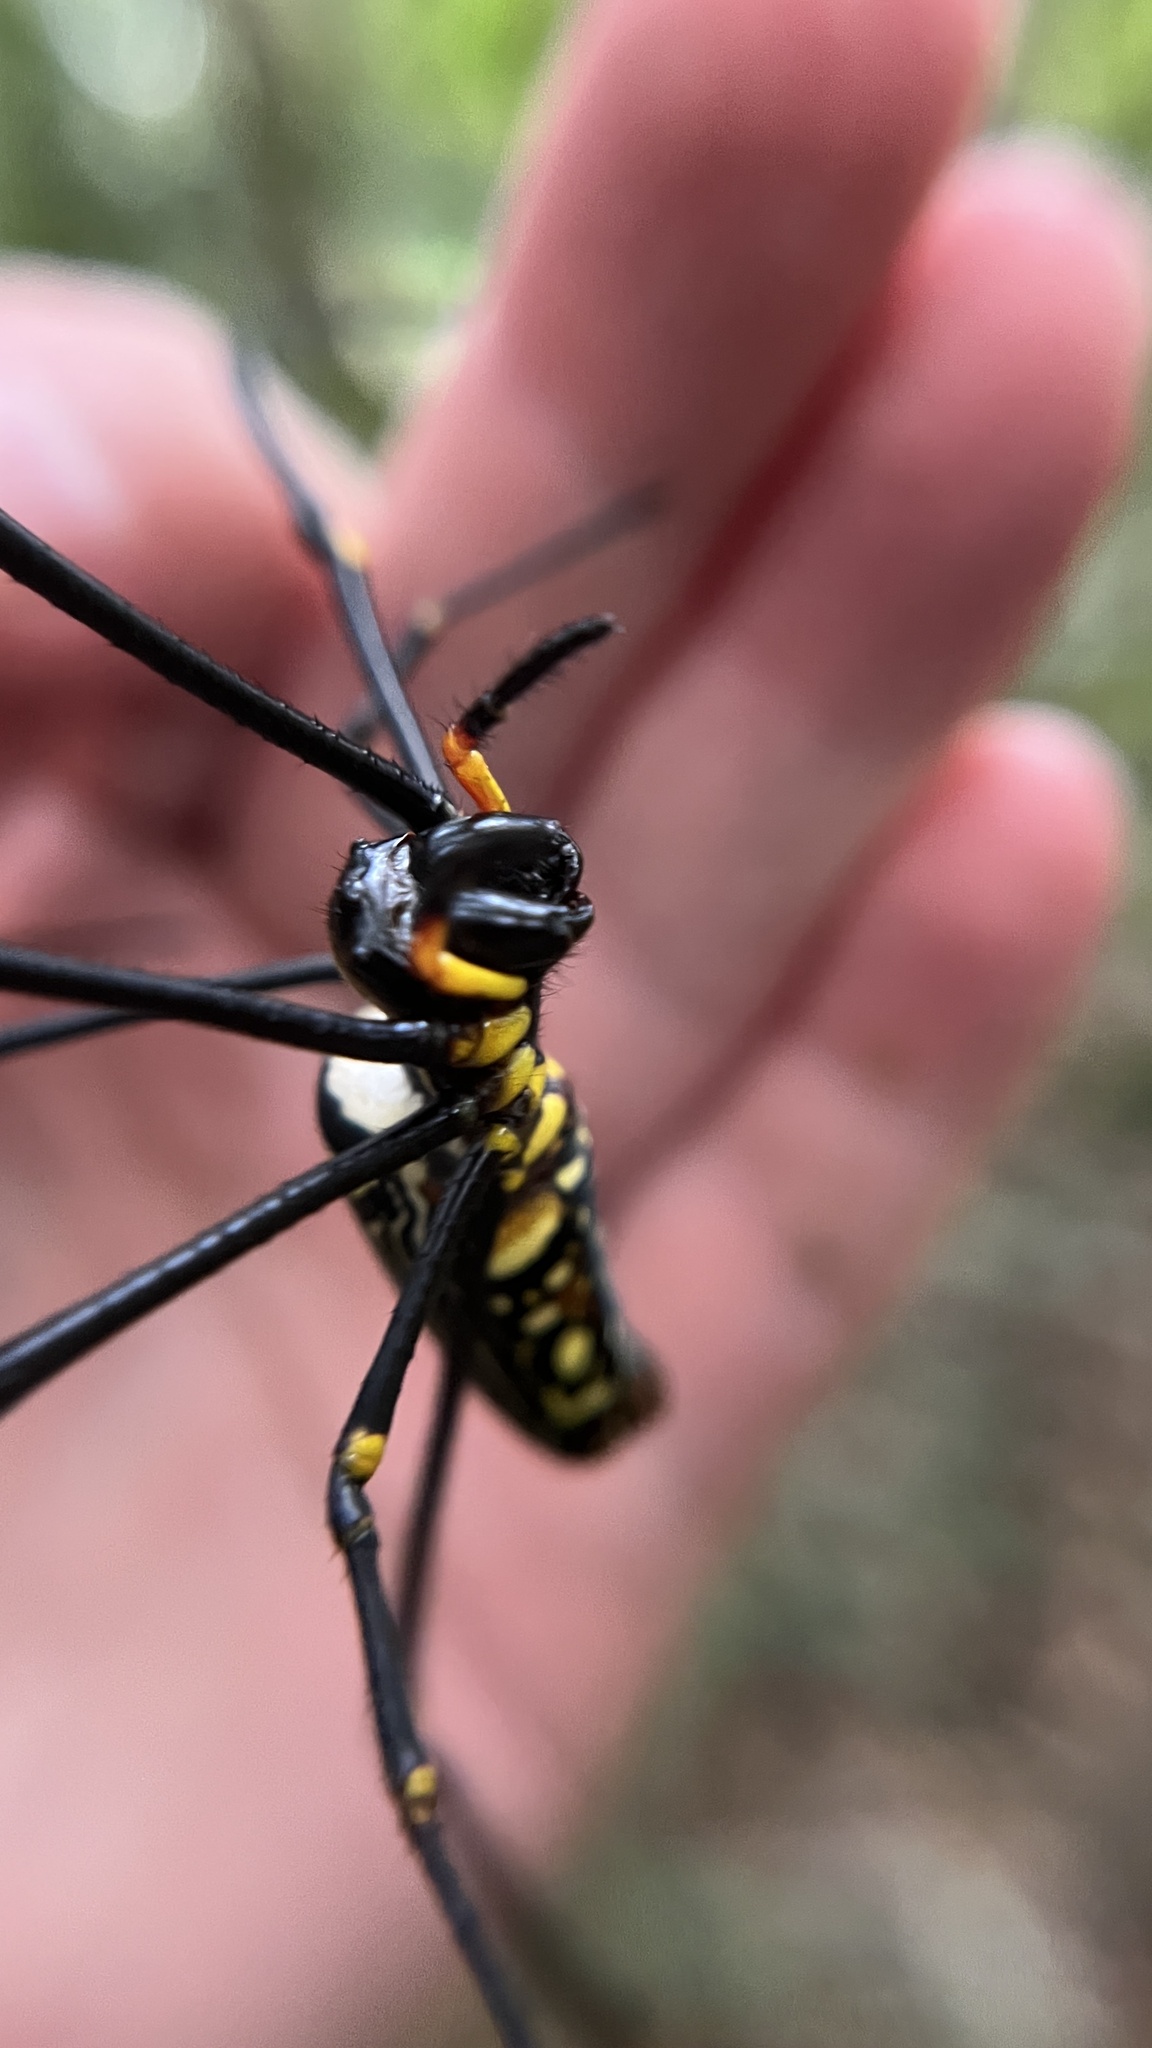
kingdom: Animalia
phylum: Arthropoda
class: Arachnida
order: Araneae
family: Araneidae
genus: Nephila
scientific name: Nephila pilipes
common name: Giant golden orb weaver
